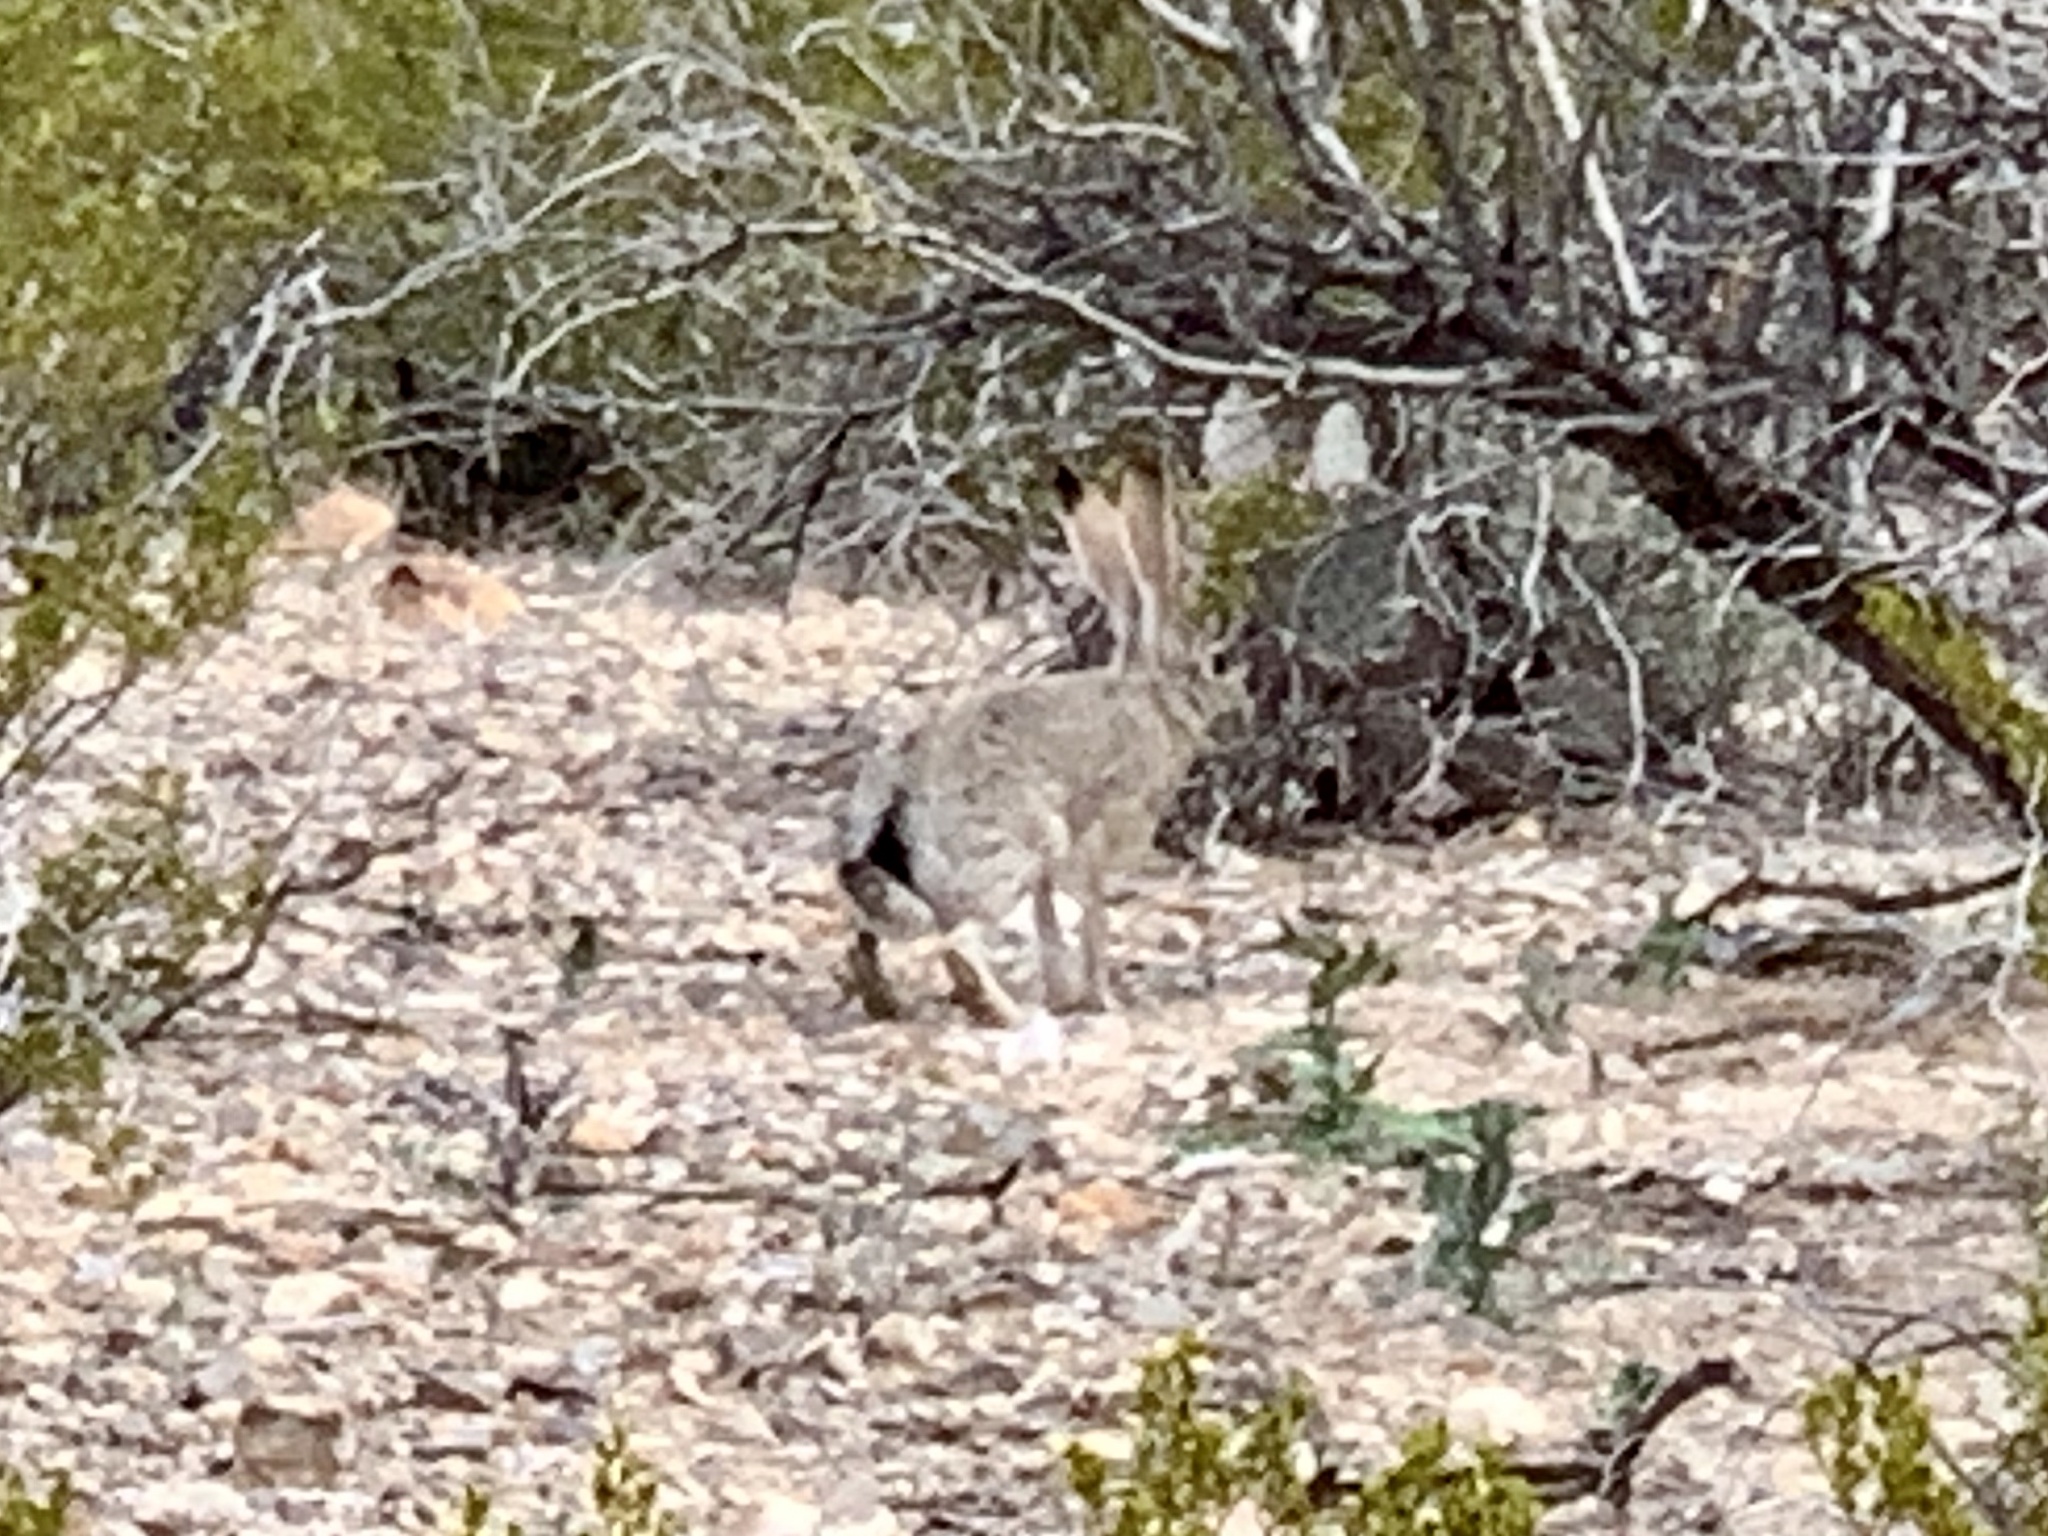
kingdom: Animalia
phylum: Chordata
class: Mammalia
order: Lagomorpha
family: Leporidae
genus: Lepus
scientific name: Lepus californicus
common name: Black-tailed jackrabbit
